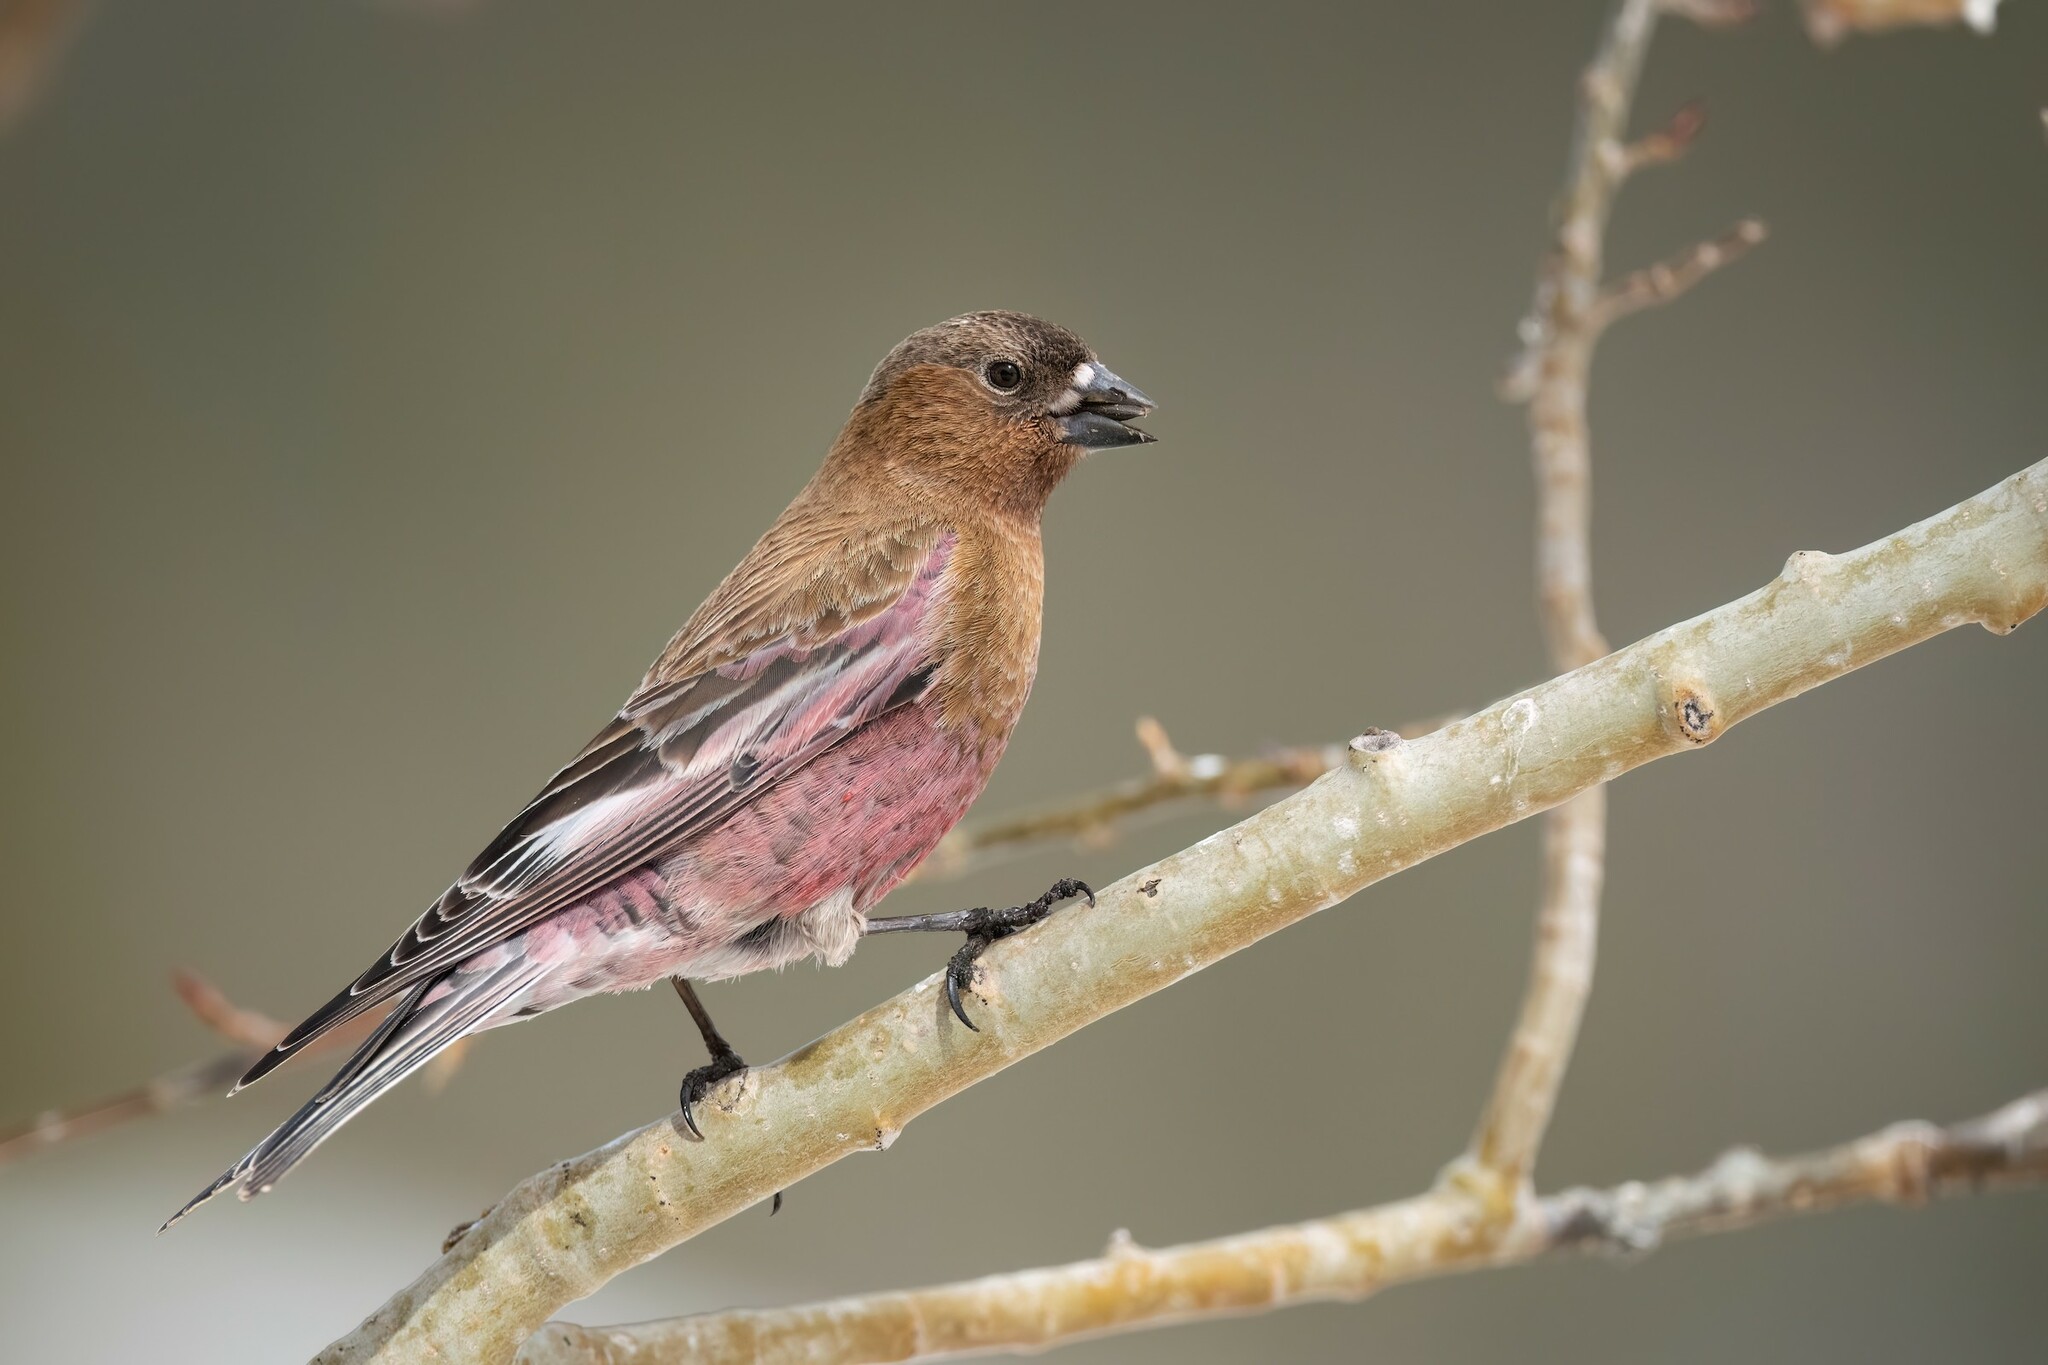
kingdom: Animalia
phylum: Chordata
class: Aves
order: Passeriformes
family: Fringillidae
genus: Leucosticte
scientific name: Leucosticte australis
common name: Brown-capped rosy-finch
